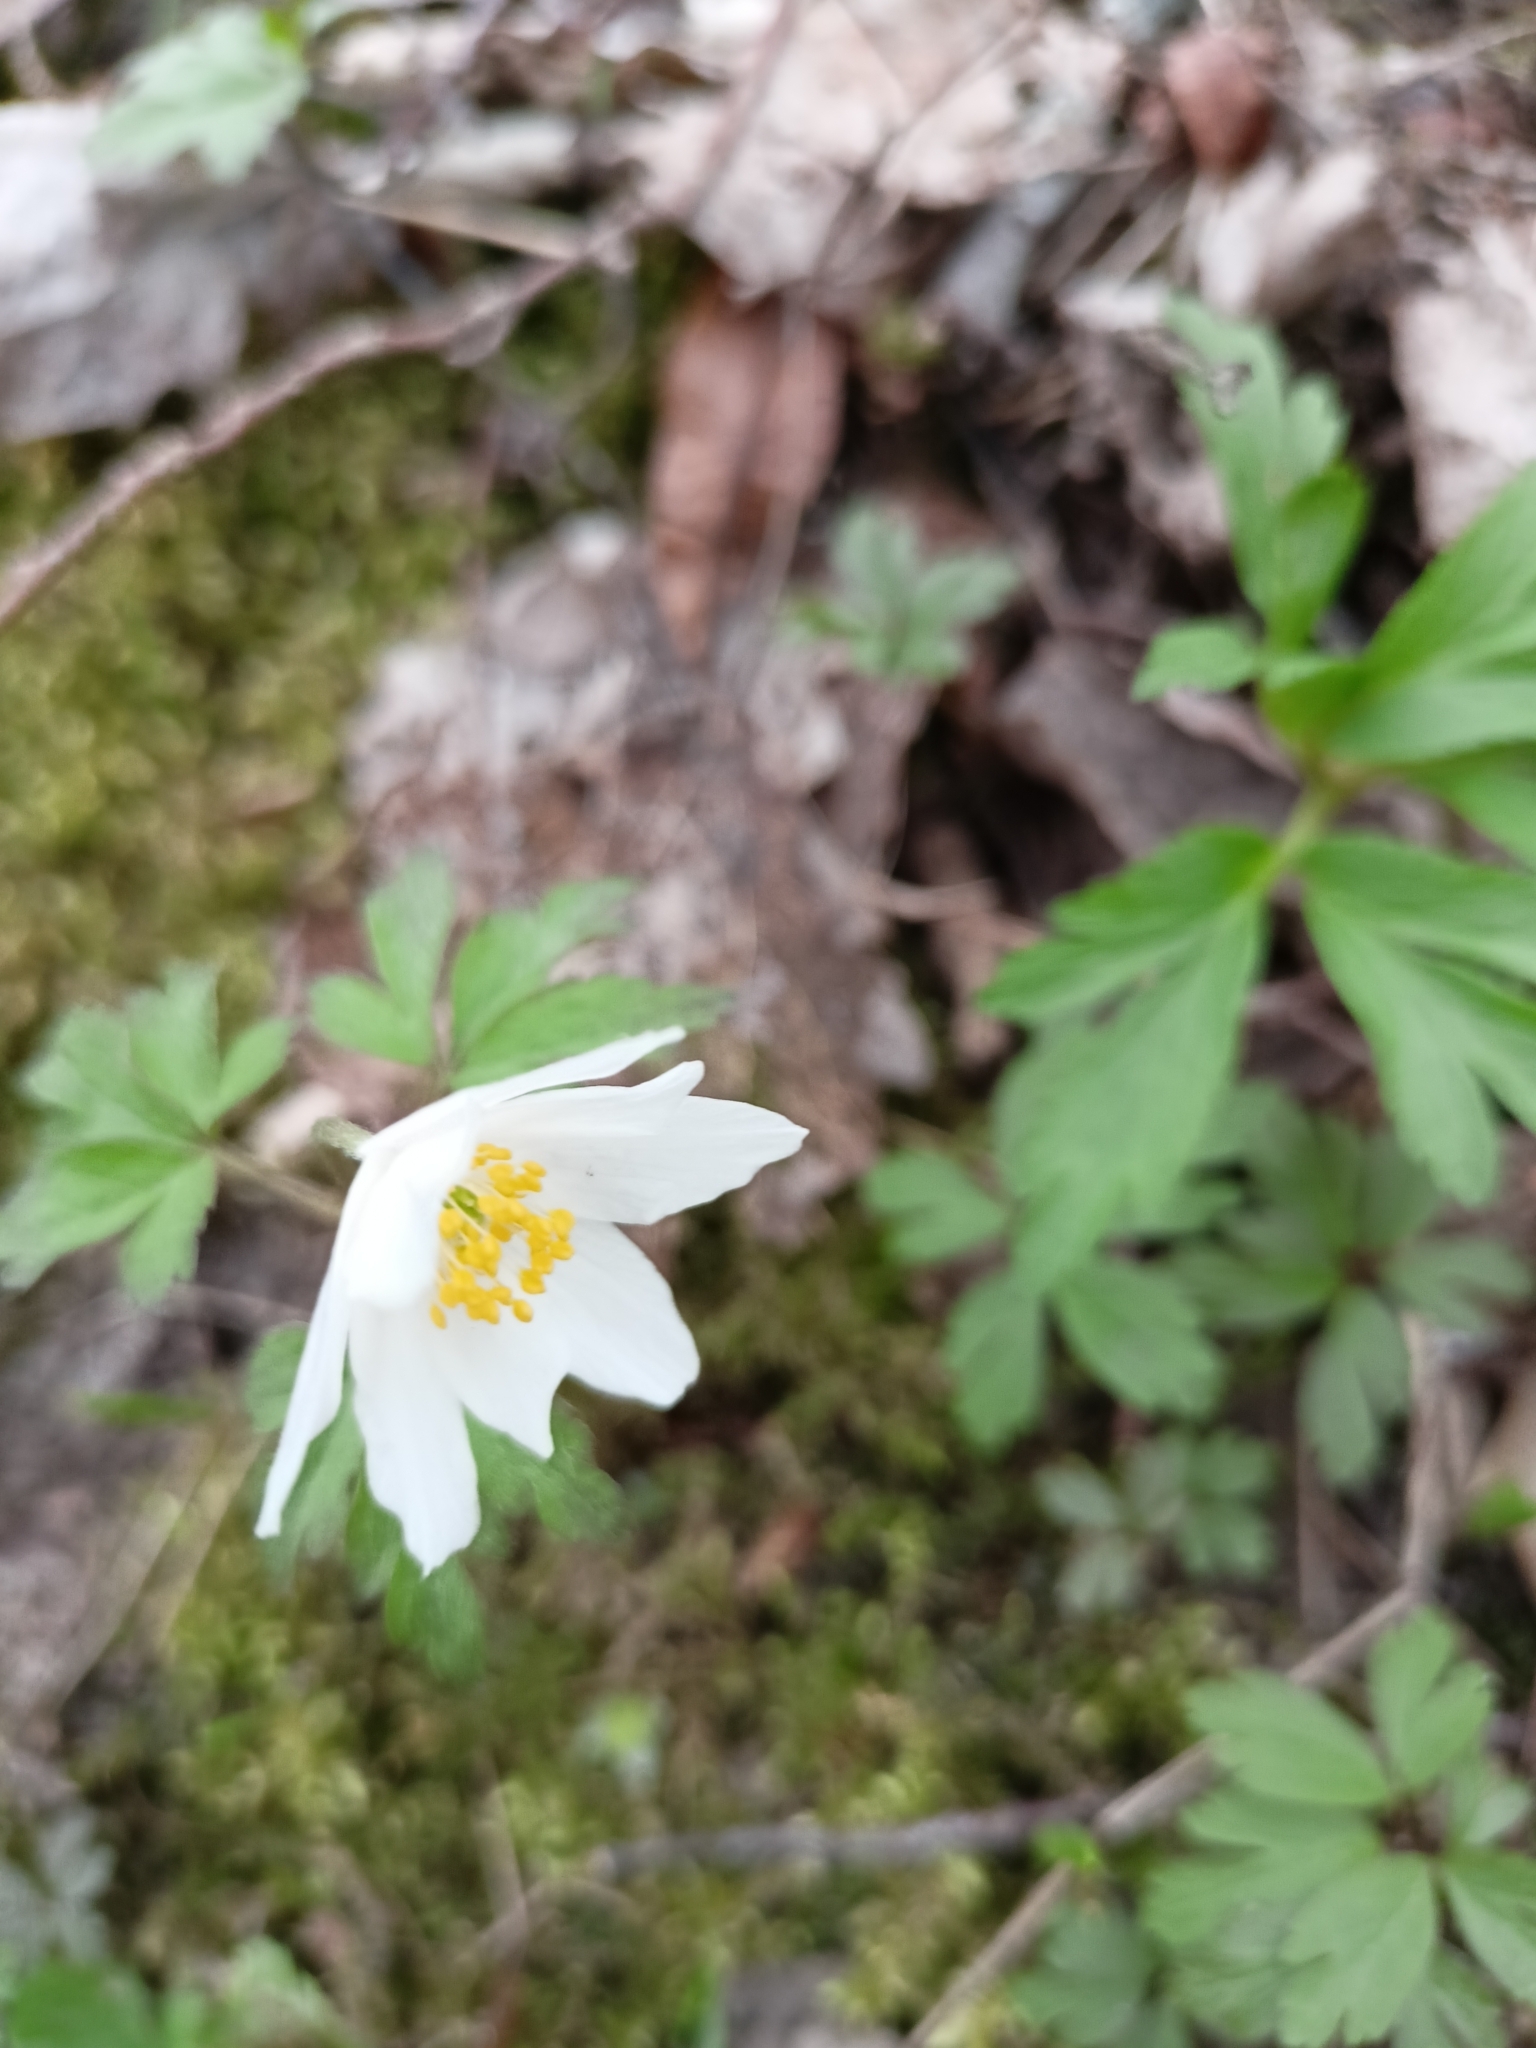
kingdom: Plantae
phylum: Tracheophyta
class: Magnoliopsida
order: Ranunculales
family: Ranunculaceae
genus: Anemone
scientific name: Anemone nemorosa
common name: Wood anemone
